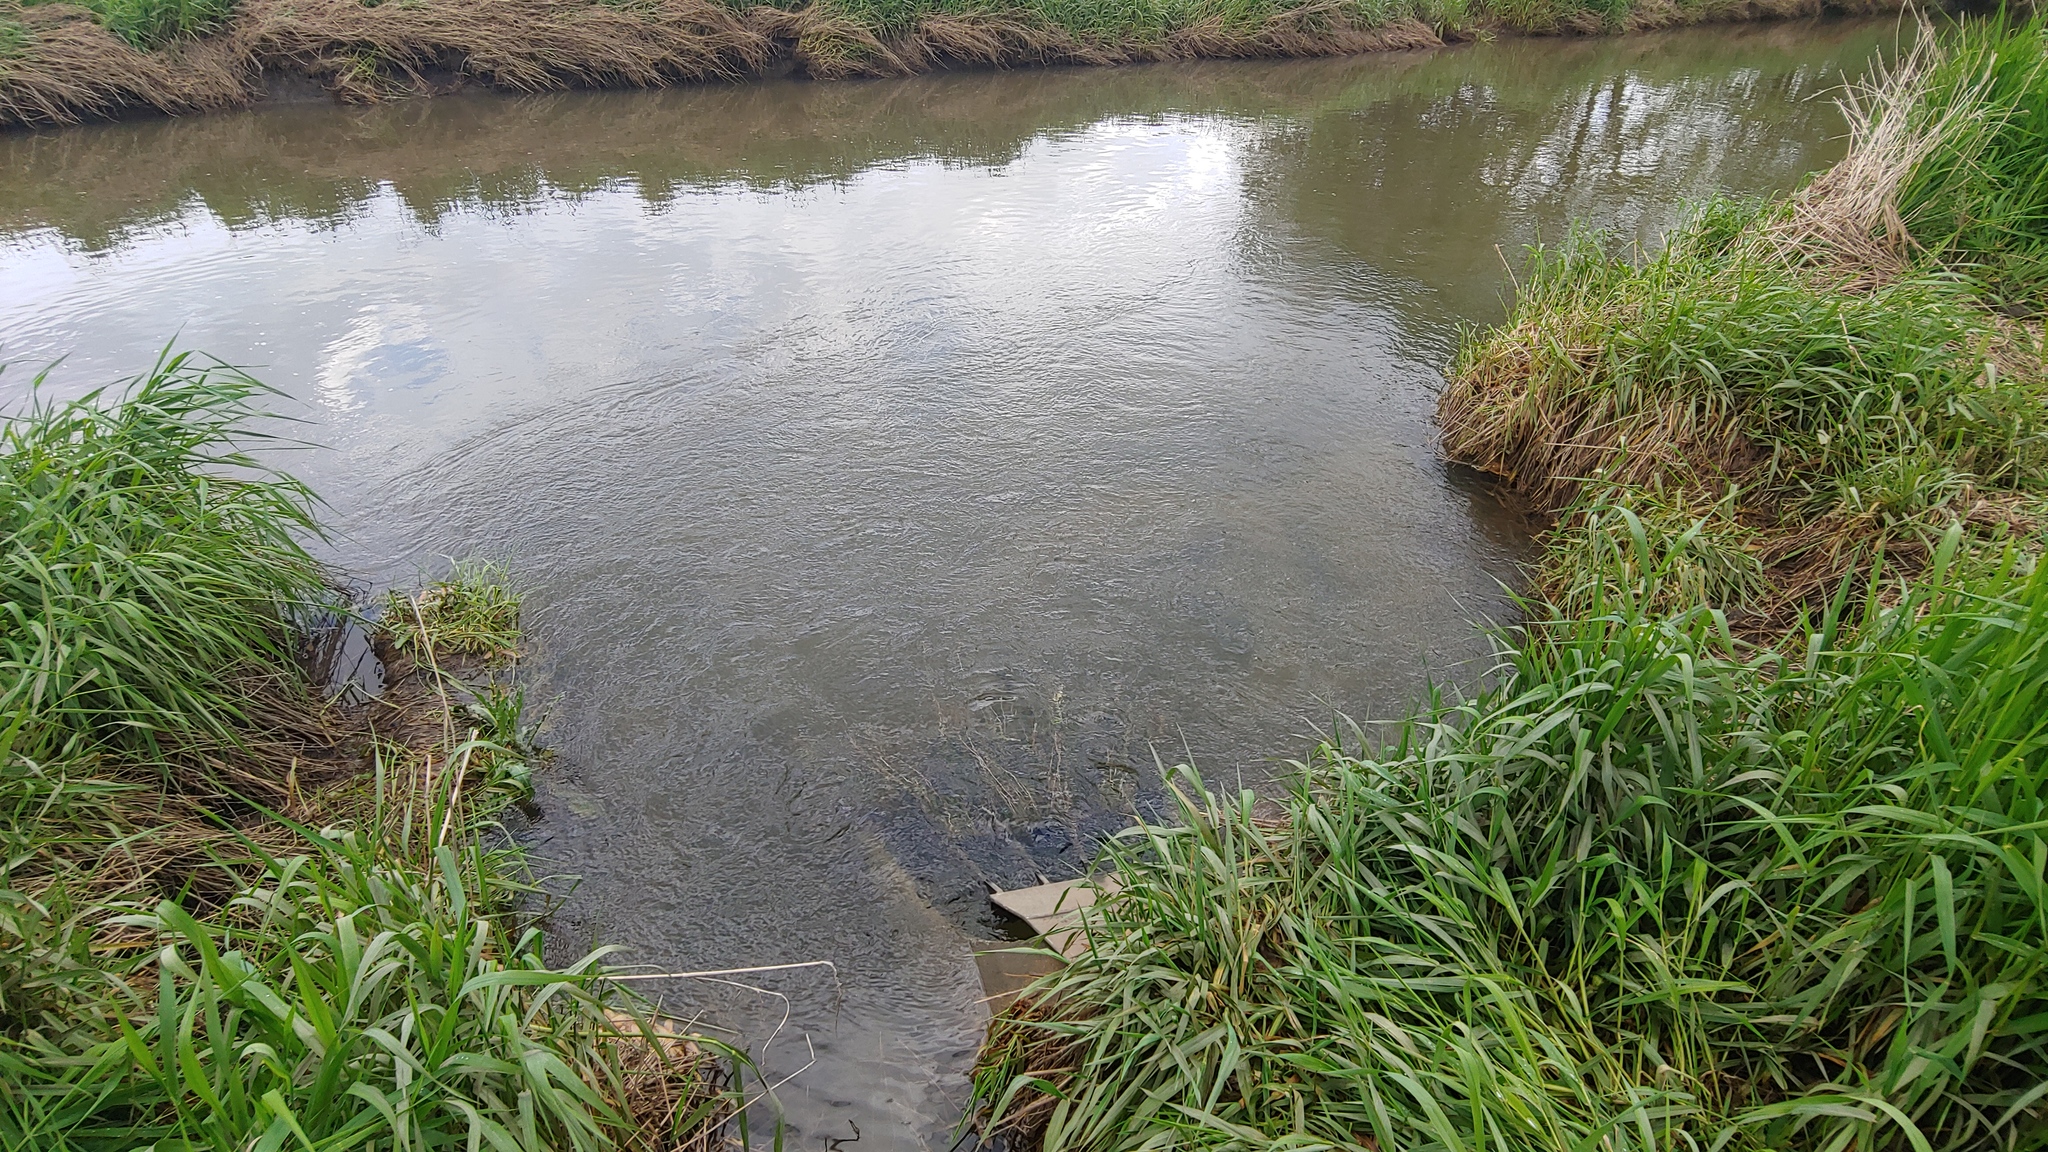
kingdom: Plantae
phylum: Tracheophyta
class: Liliopsida
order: Poales
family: Poaceae
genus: Phalaris
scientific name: Phalaris arundinacea
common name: Reed canary-grass
